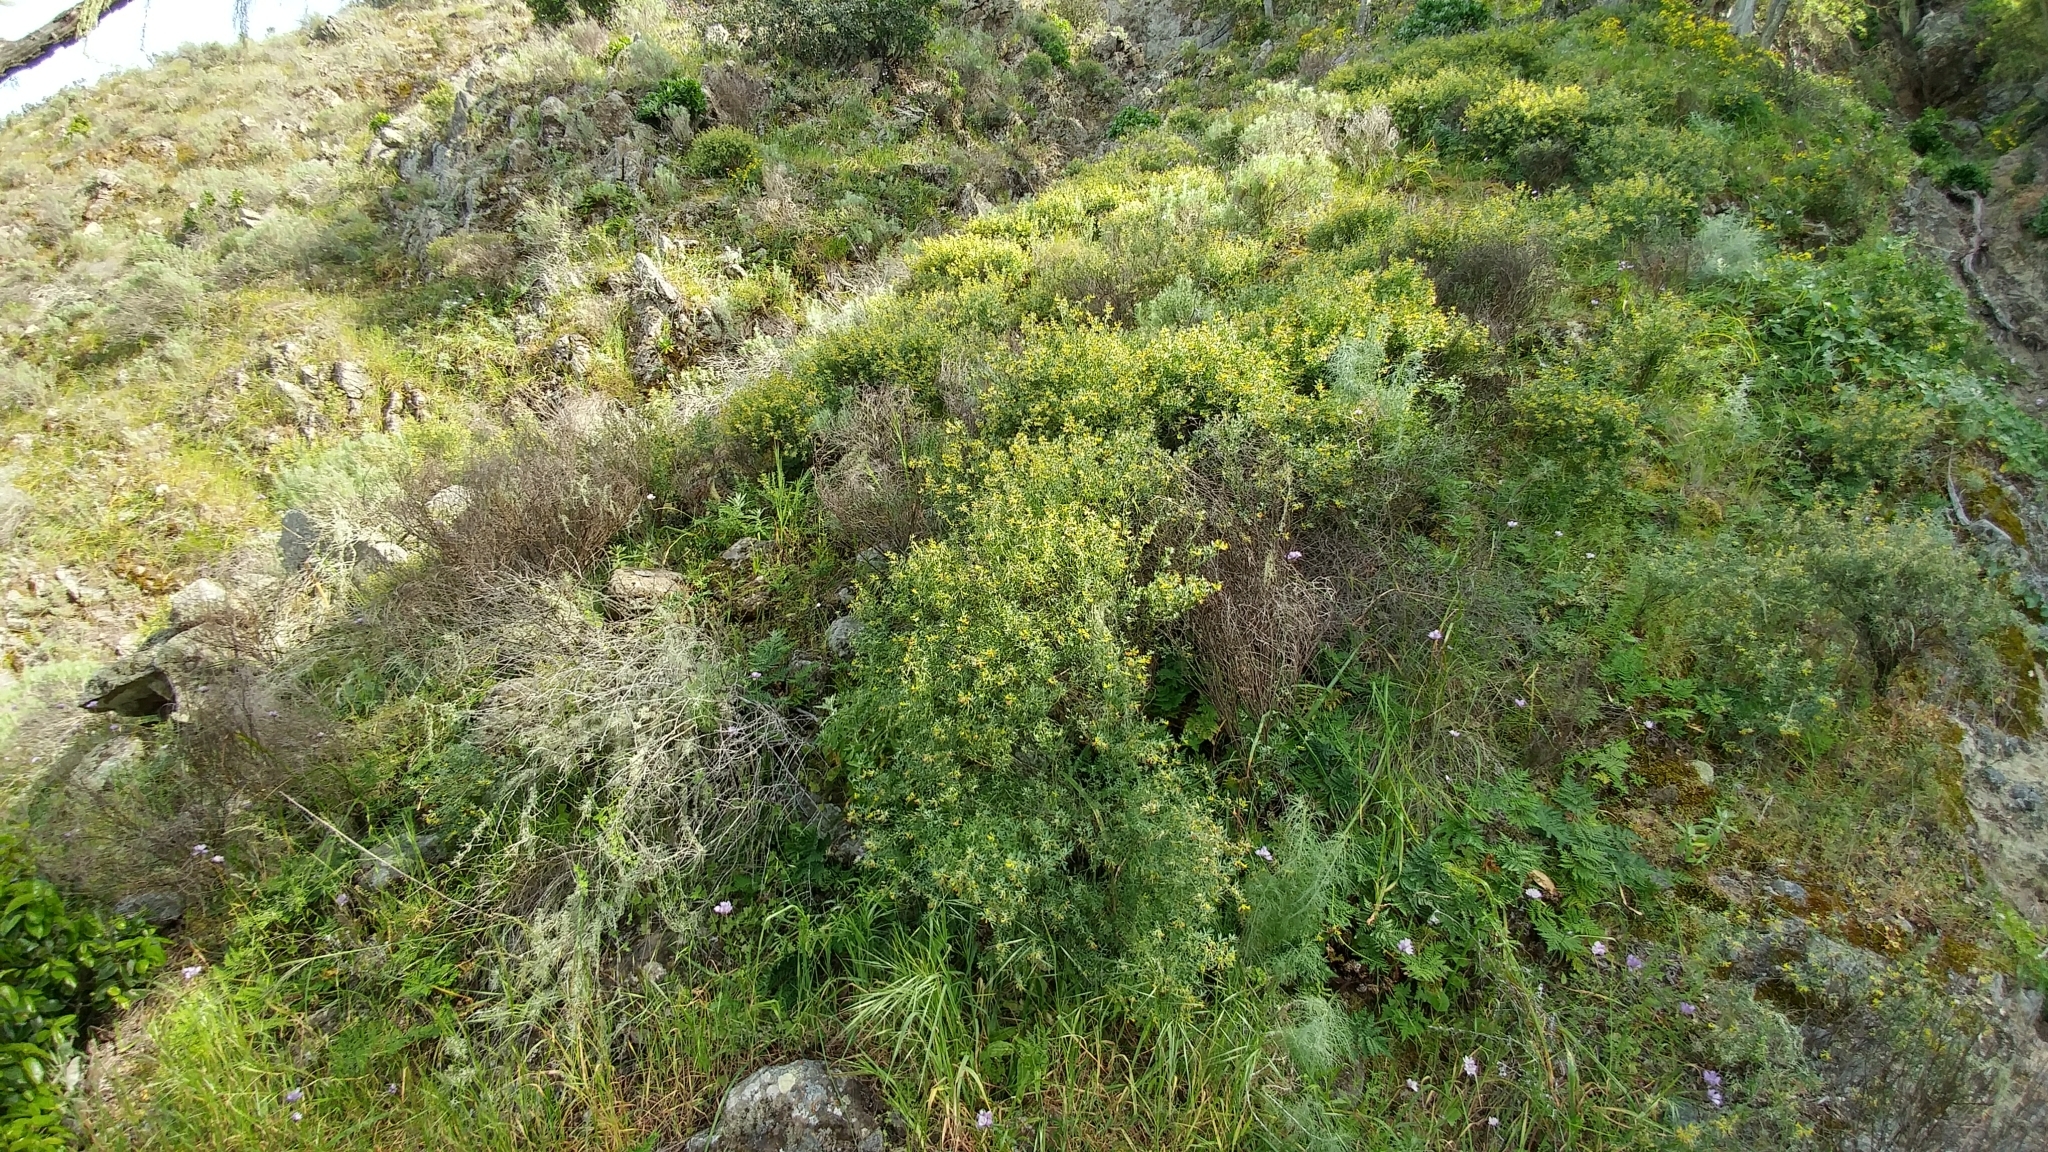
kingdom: Plantae
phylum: Tracheophyta
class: Magnoliopsida
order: Fabales
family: Fabaceae
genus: Acmispon
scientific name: Acmispon dendroideus
